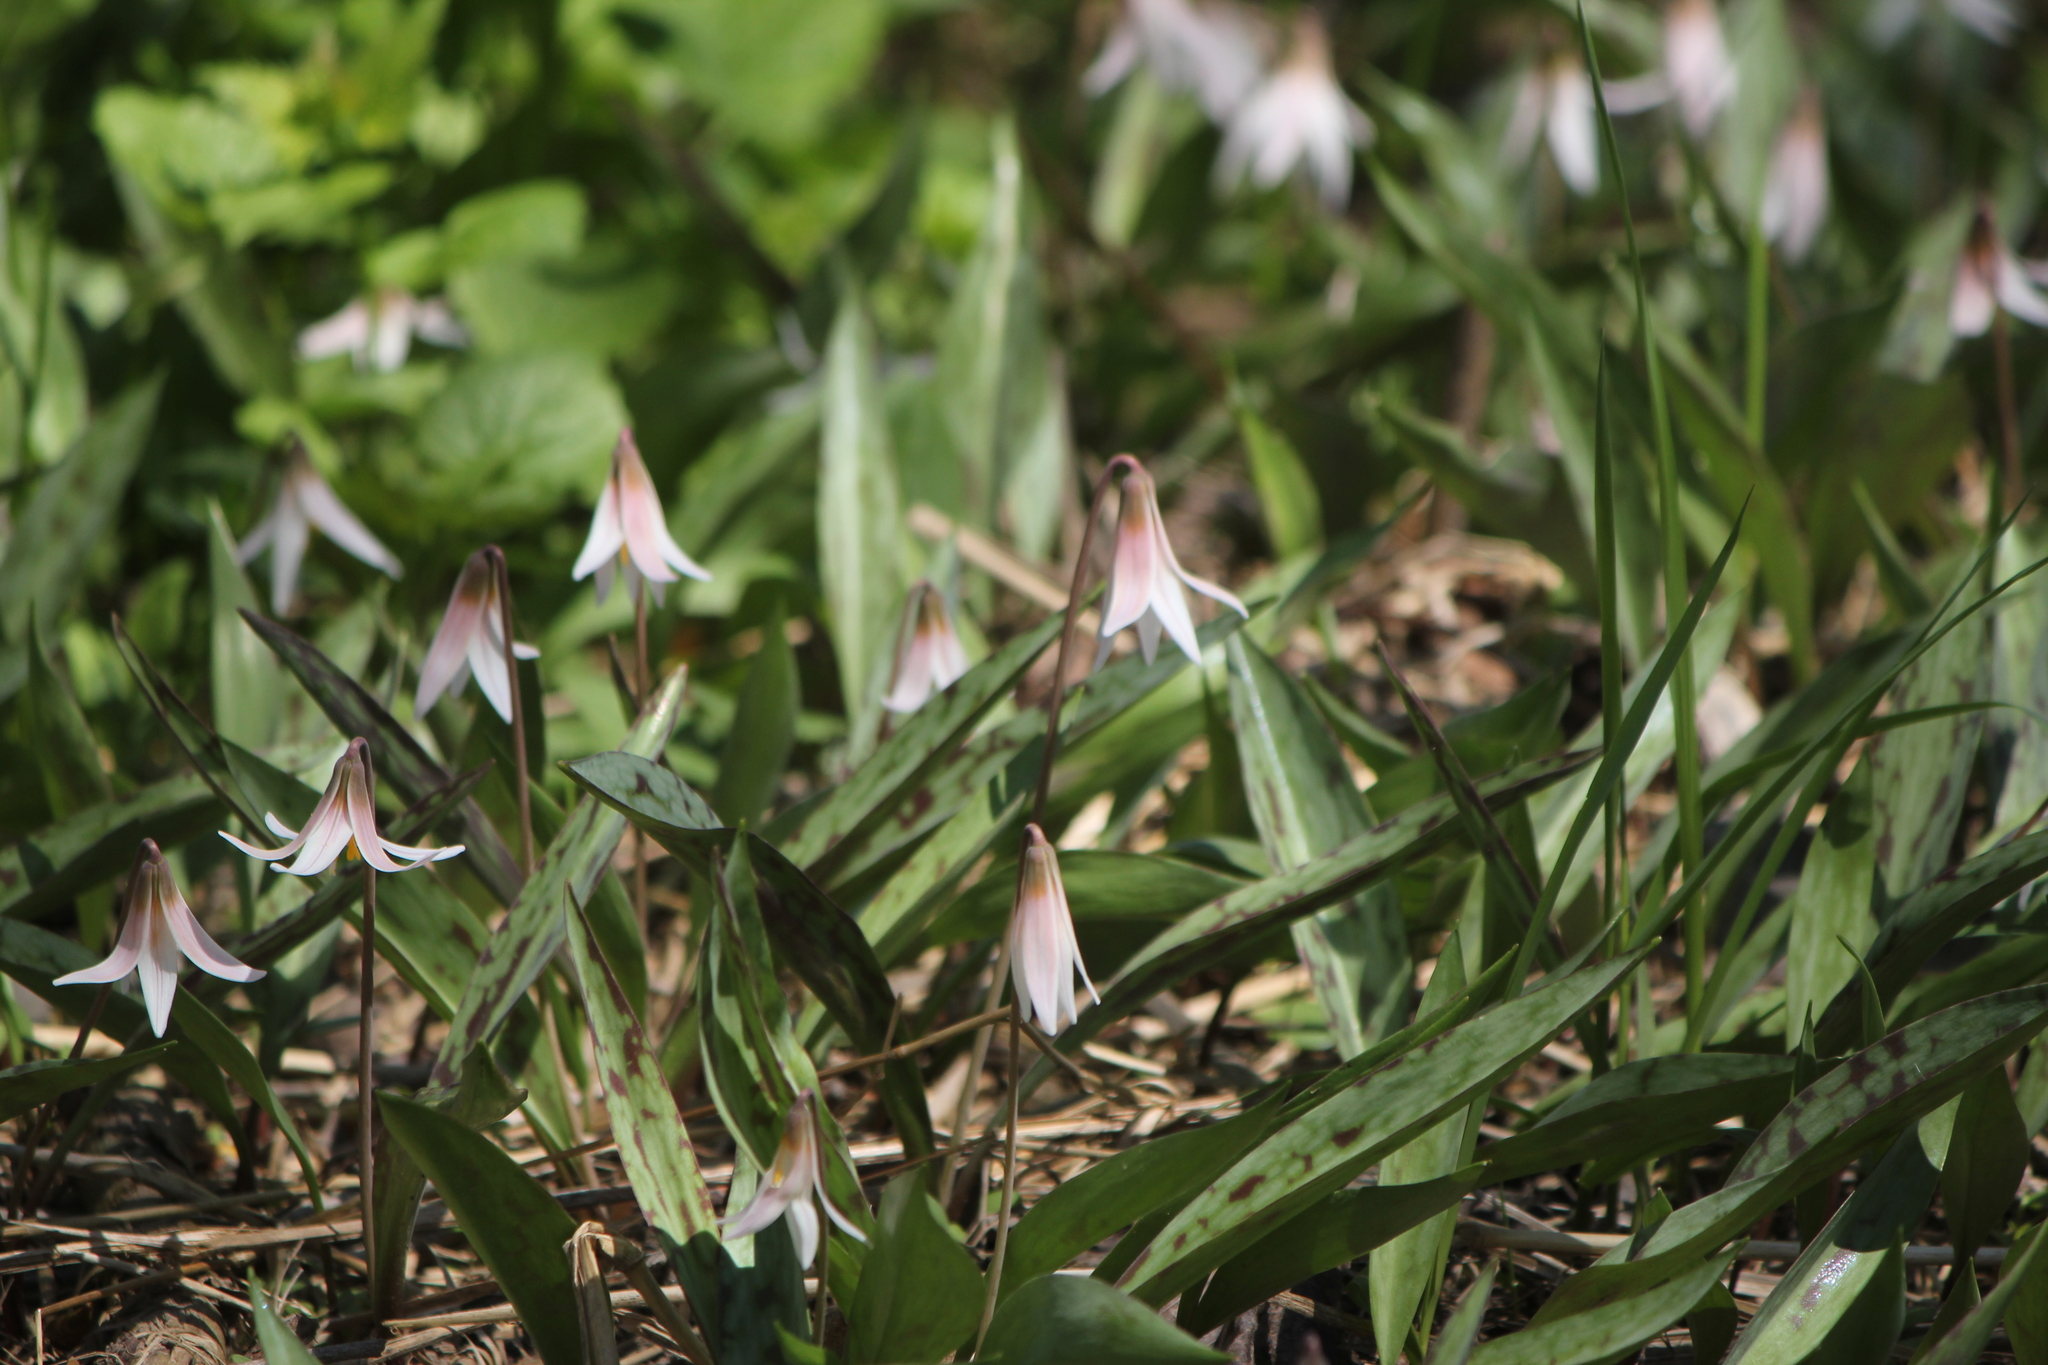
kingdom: Plantae
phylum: Tracheophyta
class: Liliopsida
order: Liliales
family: Liliaceae
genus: Erythronium
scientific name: Erythronium albidum
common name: White trout-lily
